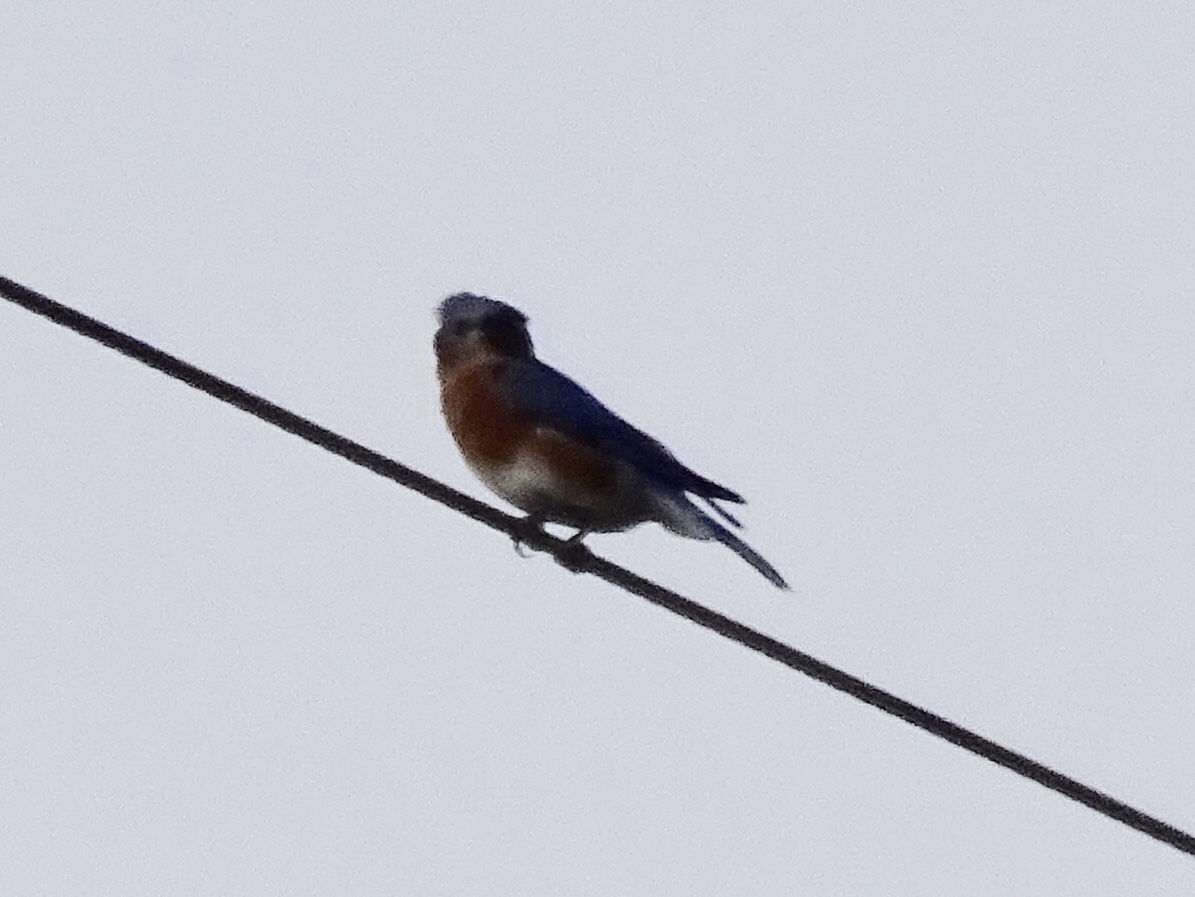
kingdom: Animalia
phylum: Chordata
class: Aves
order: Passeriformes
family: Turdidae
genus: Sialia
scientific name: Sialia sialis
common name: Eastern bluebird
